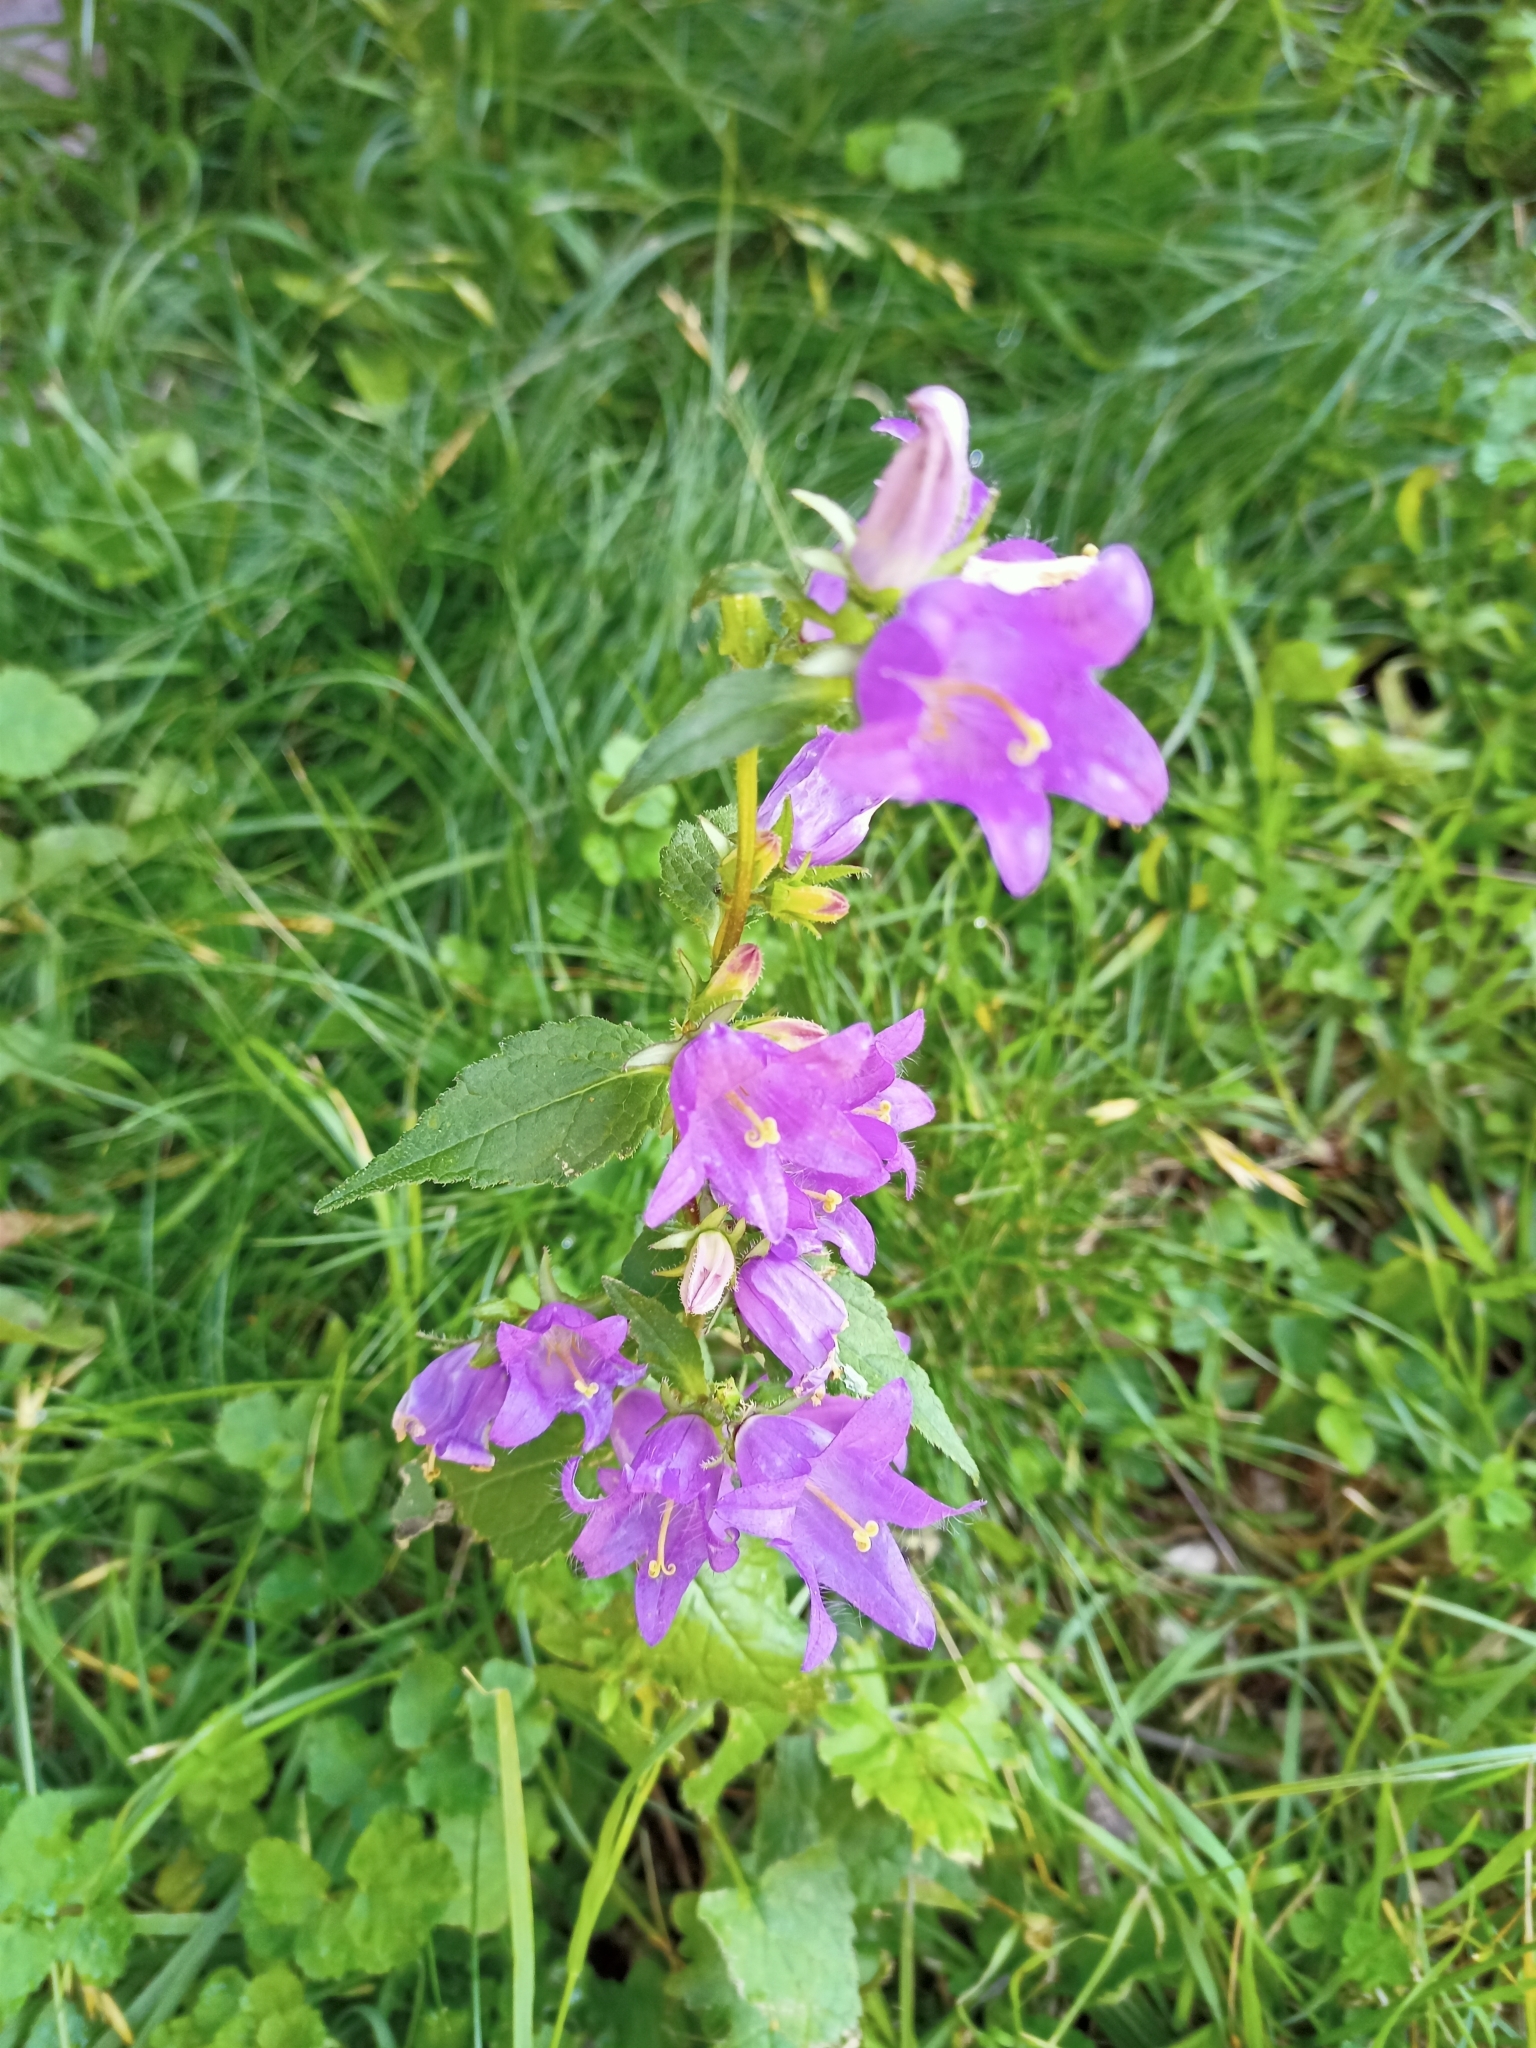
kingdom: Plantae
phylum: Tracheophyta
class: Magnoliopsida
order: Asterales
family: Campanulaceae
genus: Campanula
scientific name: Campanula trachelium
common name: Nettle-leaved bellflower
